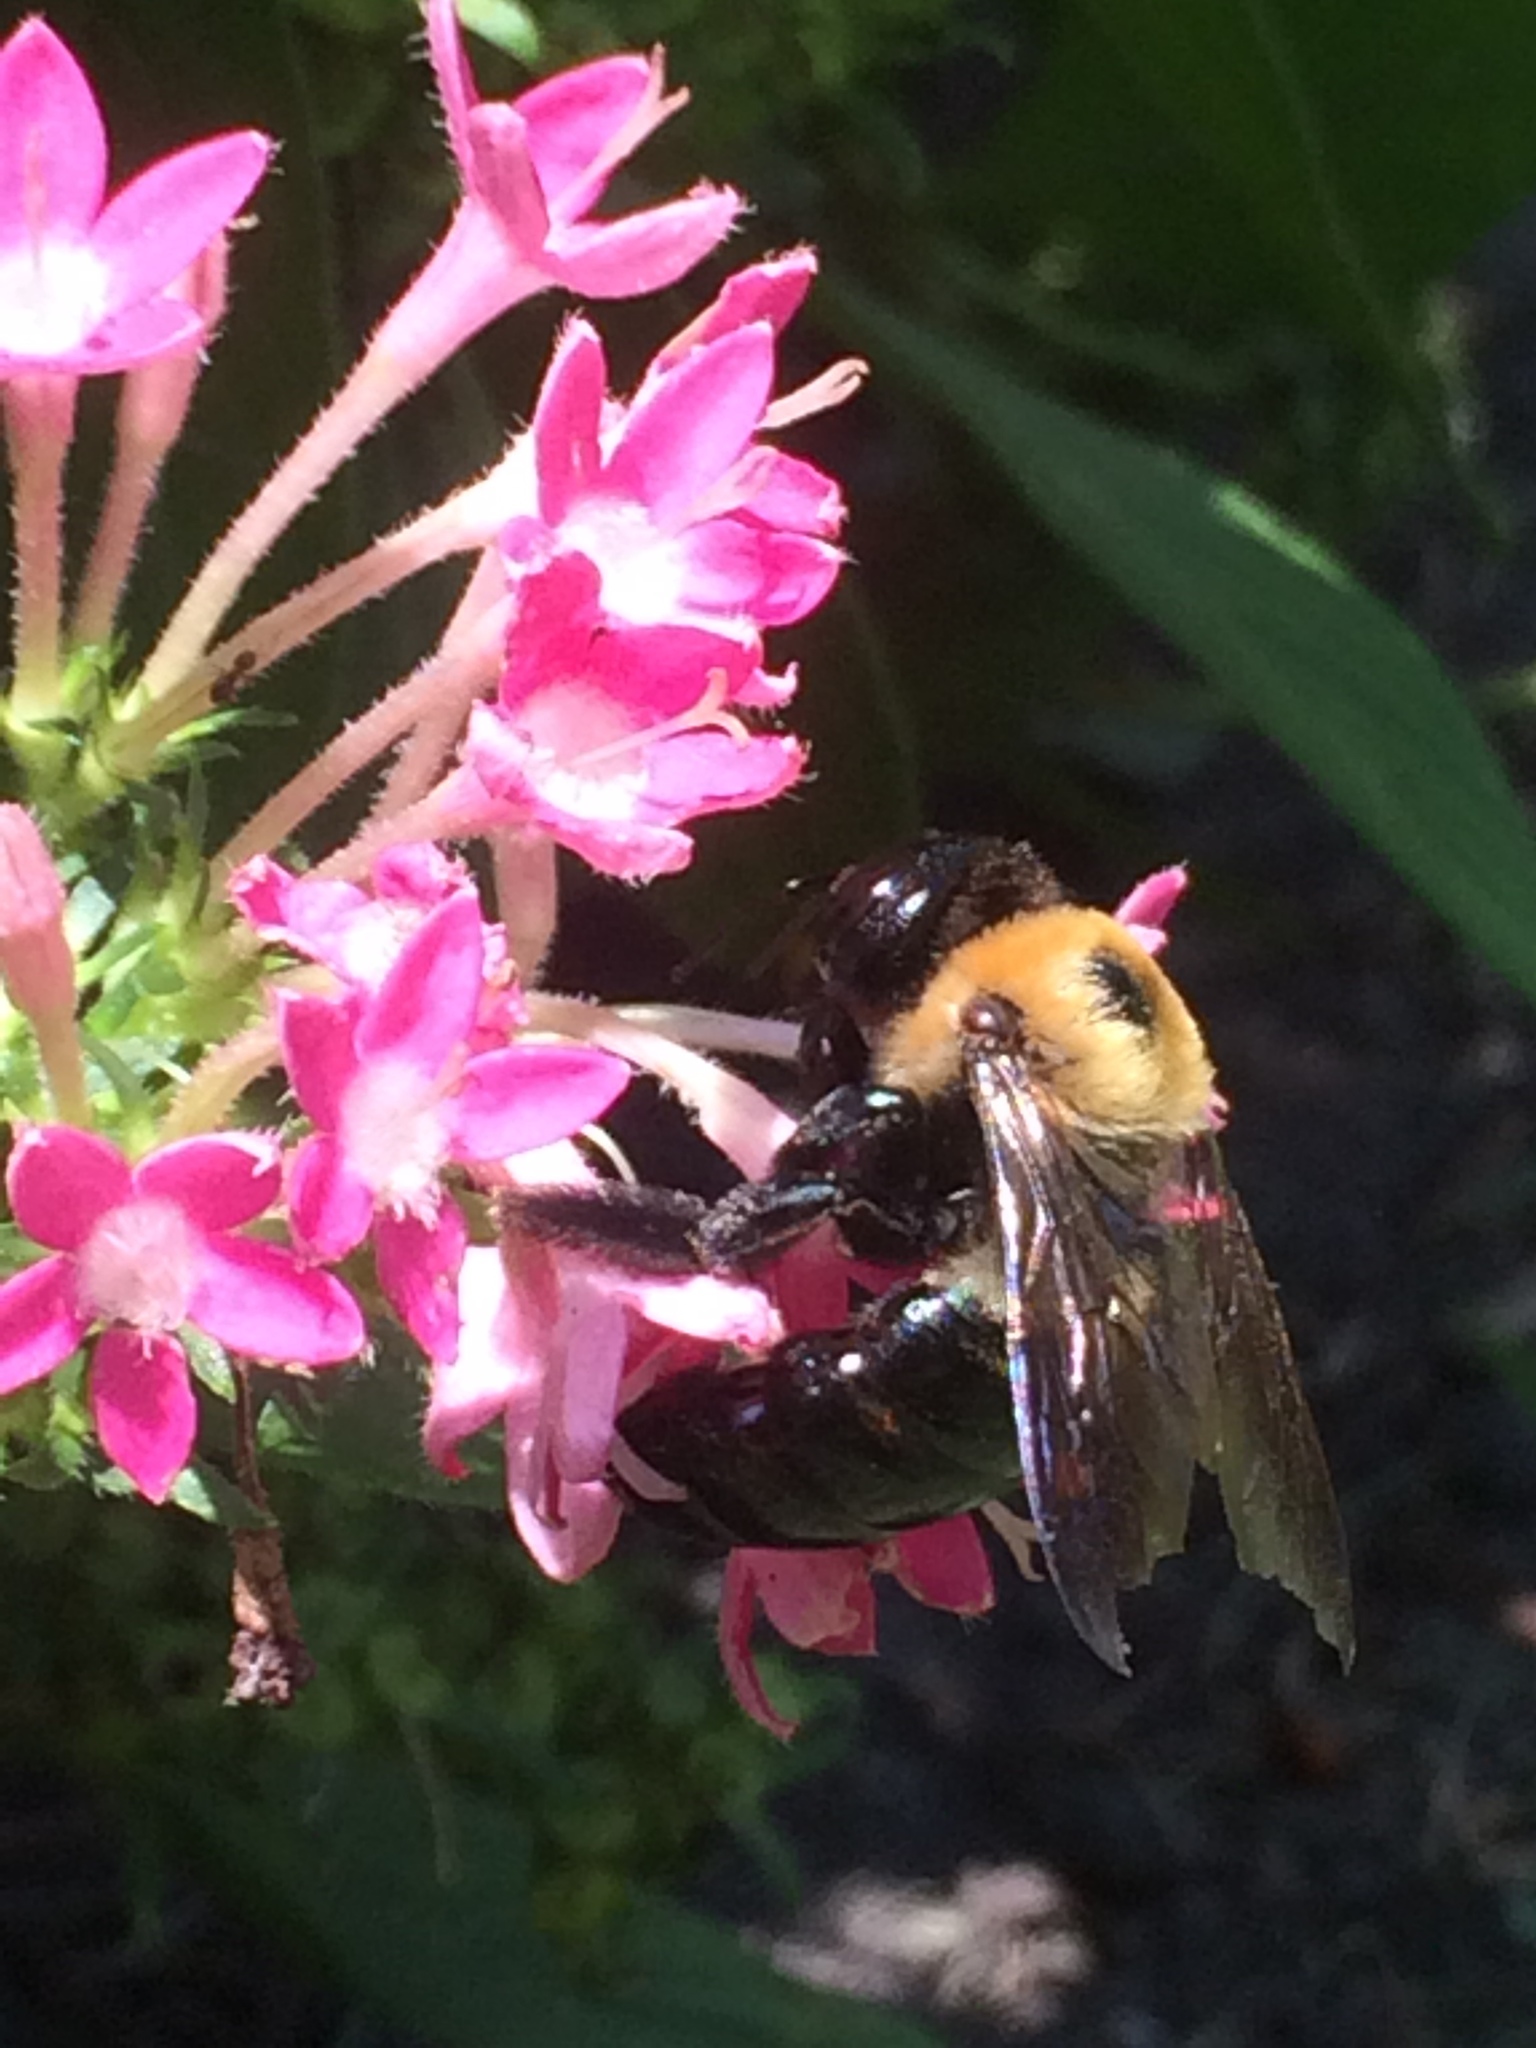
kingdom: Animalia
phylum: Arthropoda
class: Insecta
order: Hymenoptera
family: Apidae
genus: Xylocopa
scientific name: Xylocopa virginica
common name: Carpenter bee
